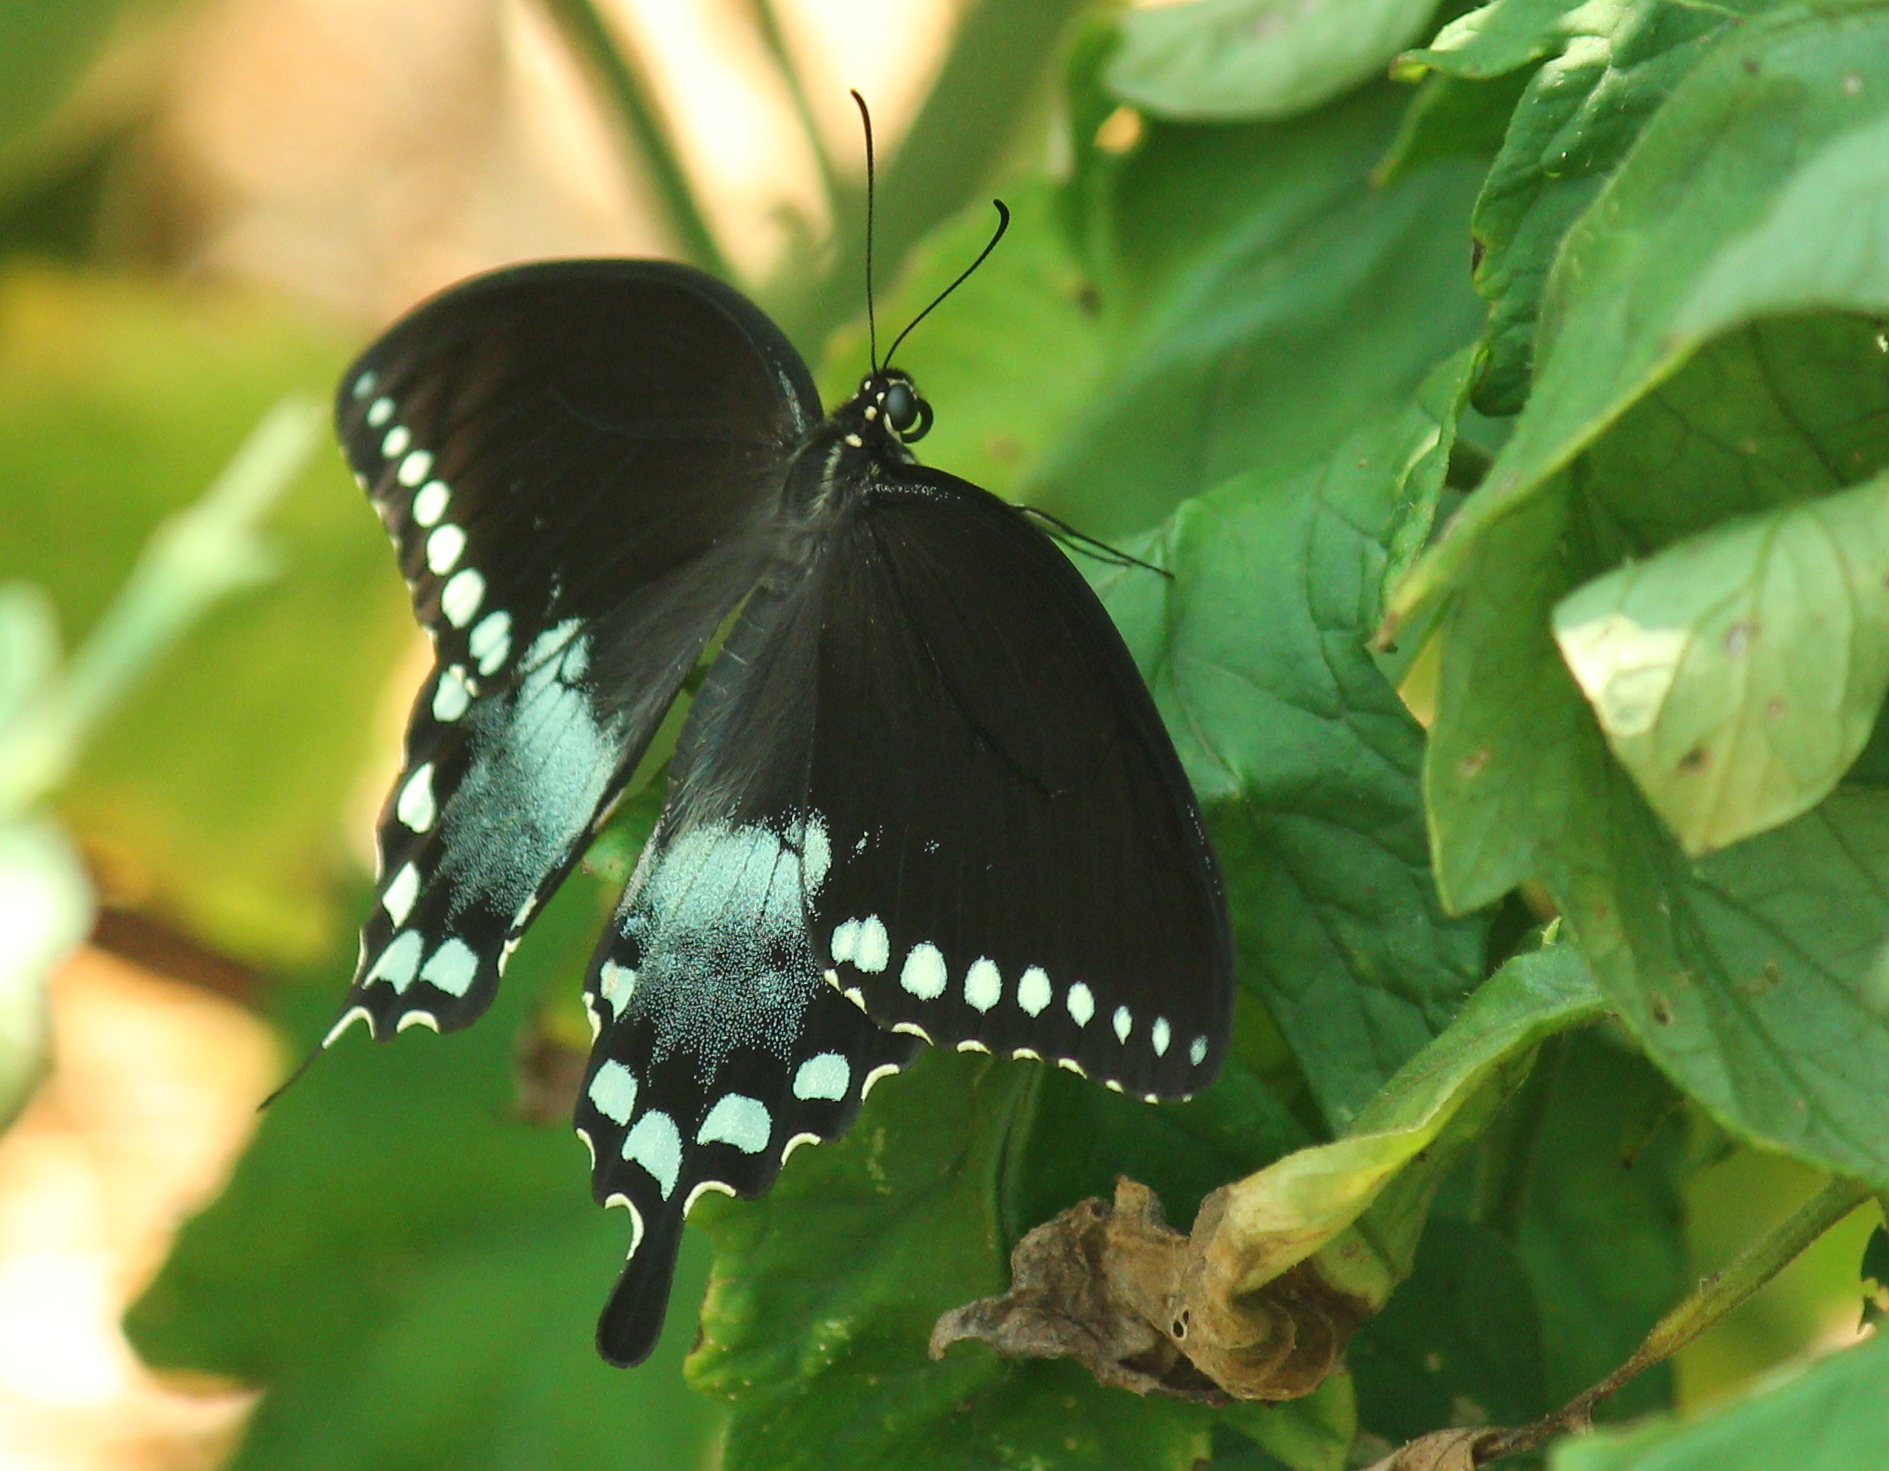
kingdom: Animalia
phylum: Arthropoda
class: Insecta
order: Lepidoptera
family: Papilionidae
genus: Papilio
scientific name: Papilio troilus
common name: Spicebush swallowtail
